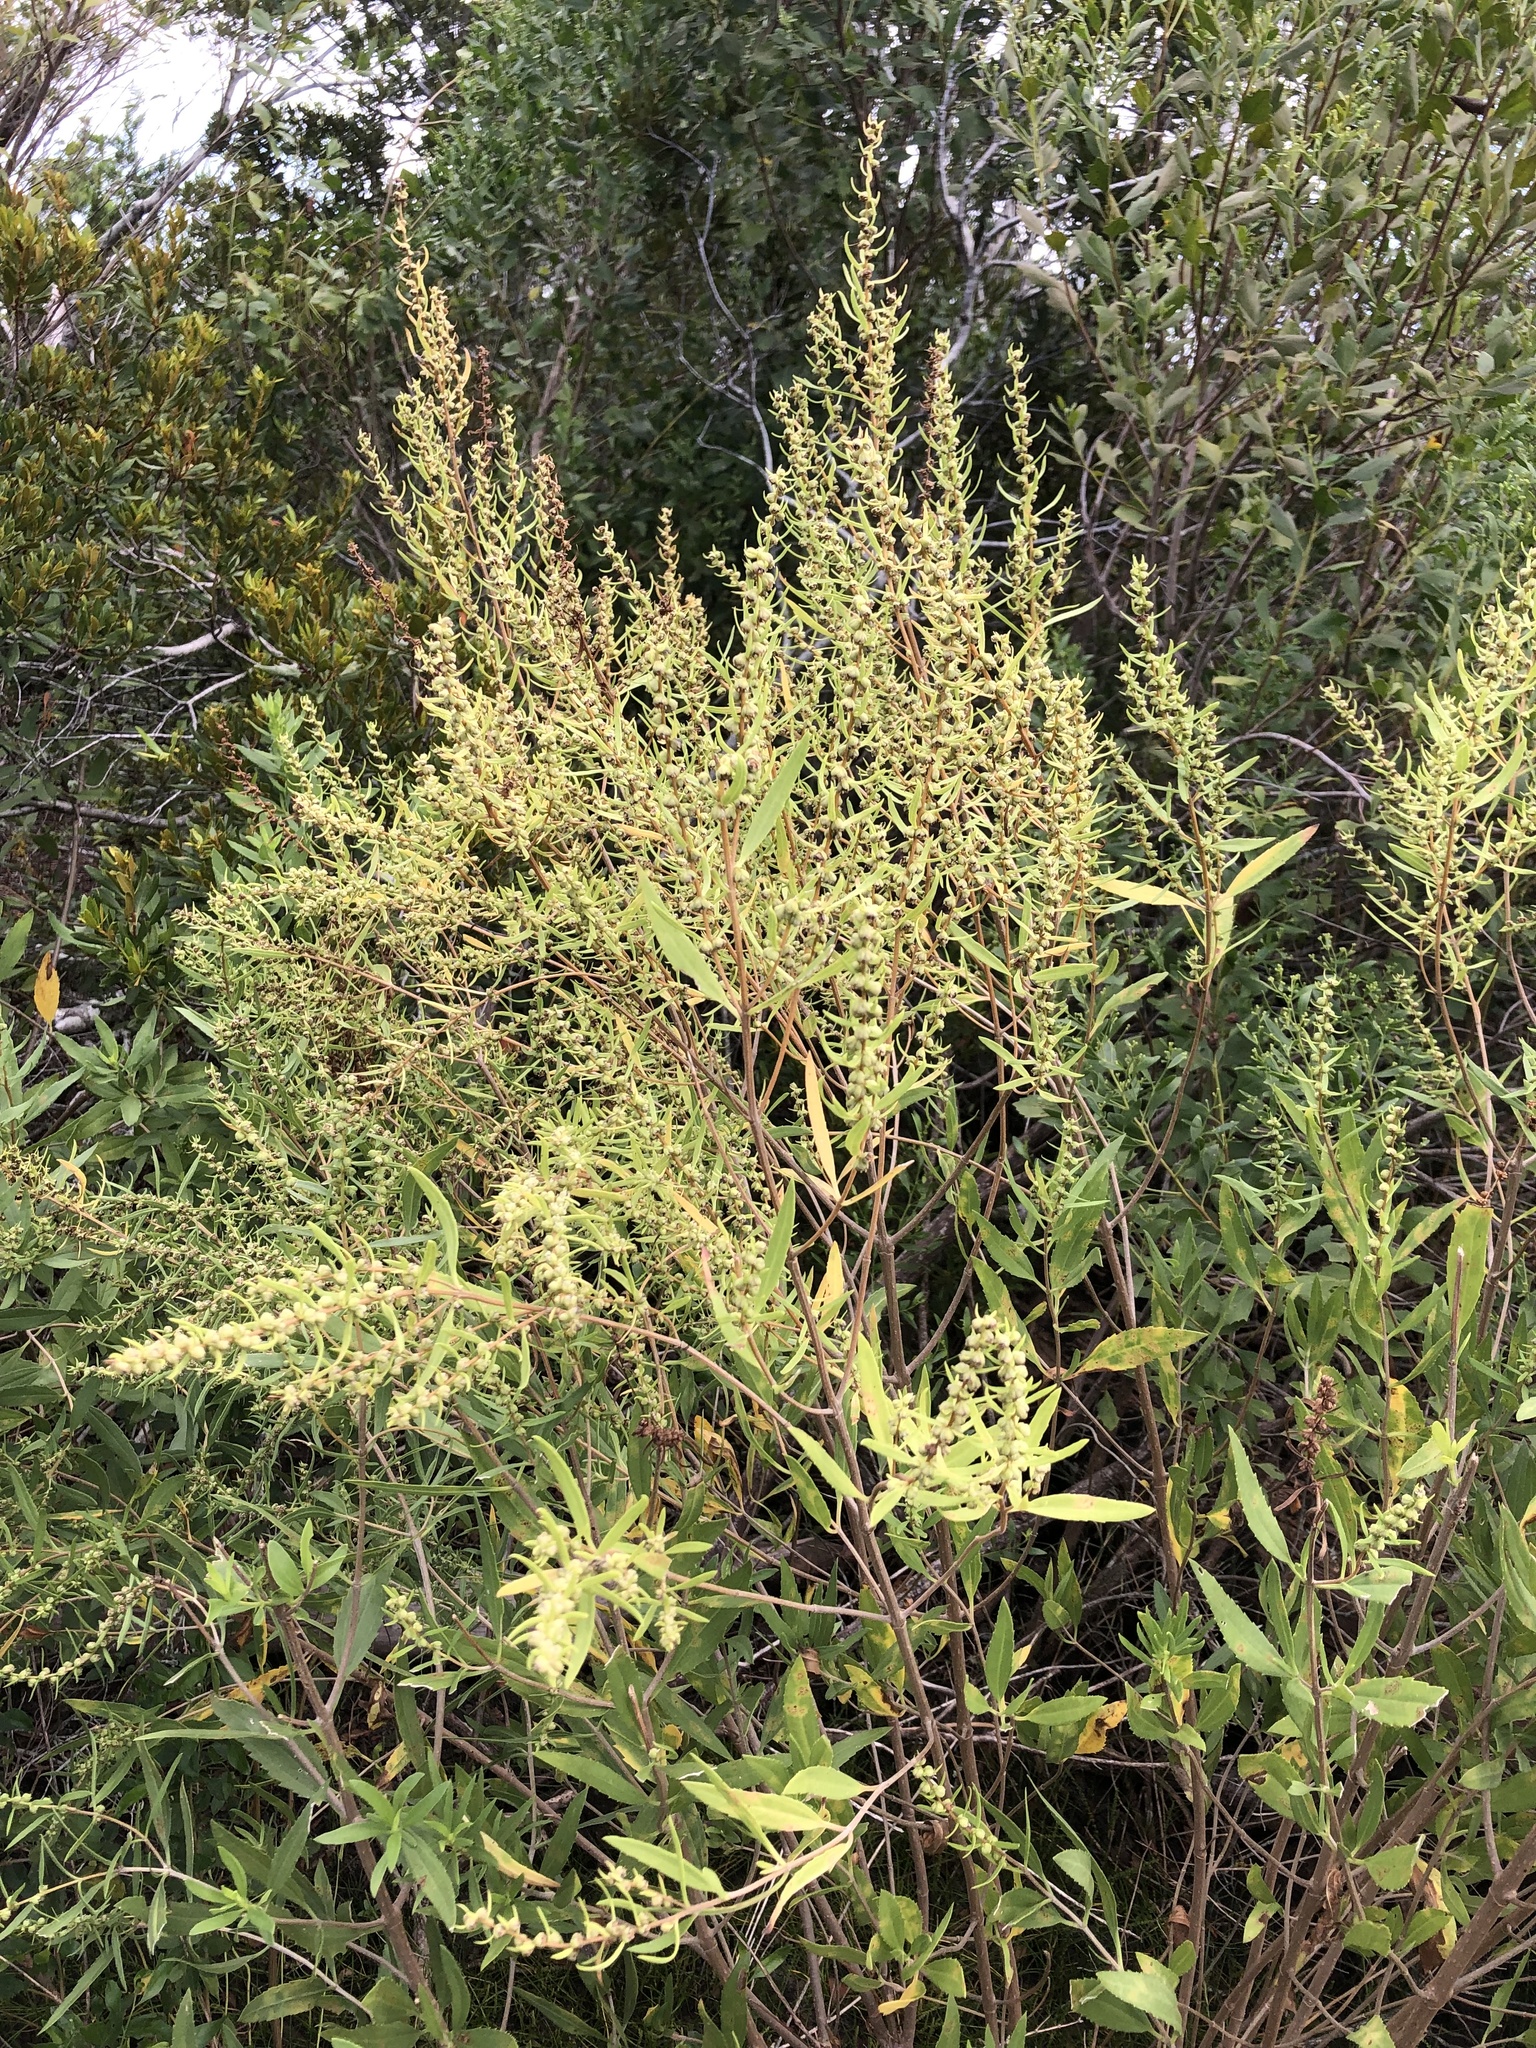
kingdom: Plantae
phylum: Tracheophyta
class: Magnoliopsida
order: Asterales
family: Asteraceae
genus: Iva
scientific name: Iva frutescens
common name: Big-leaved marsh-elder
